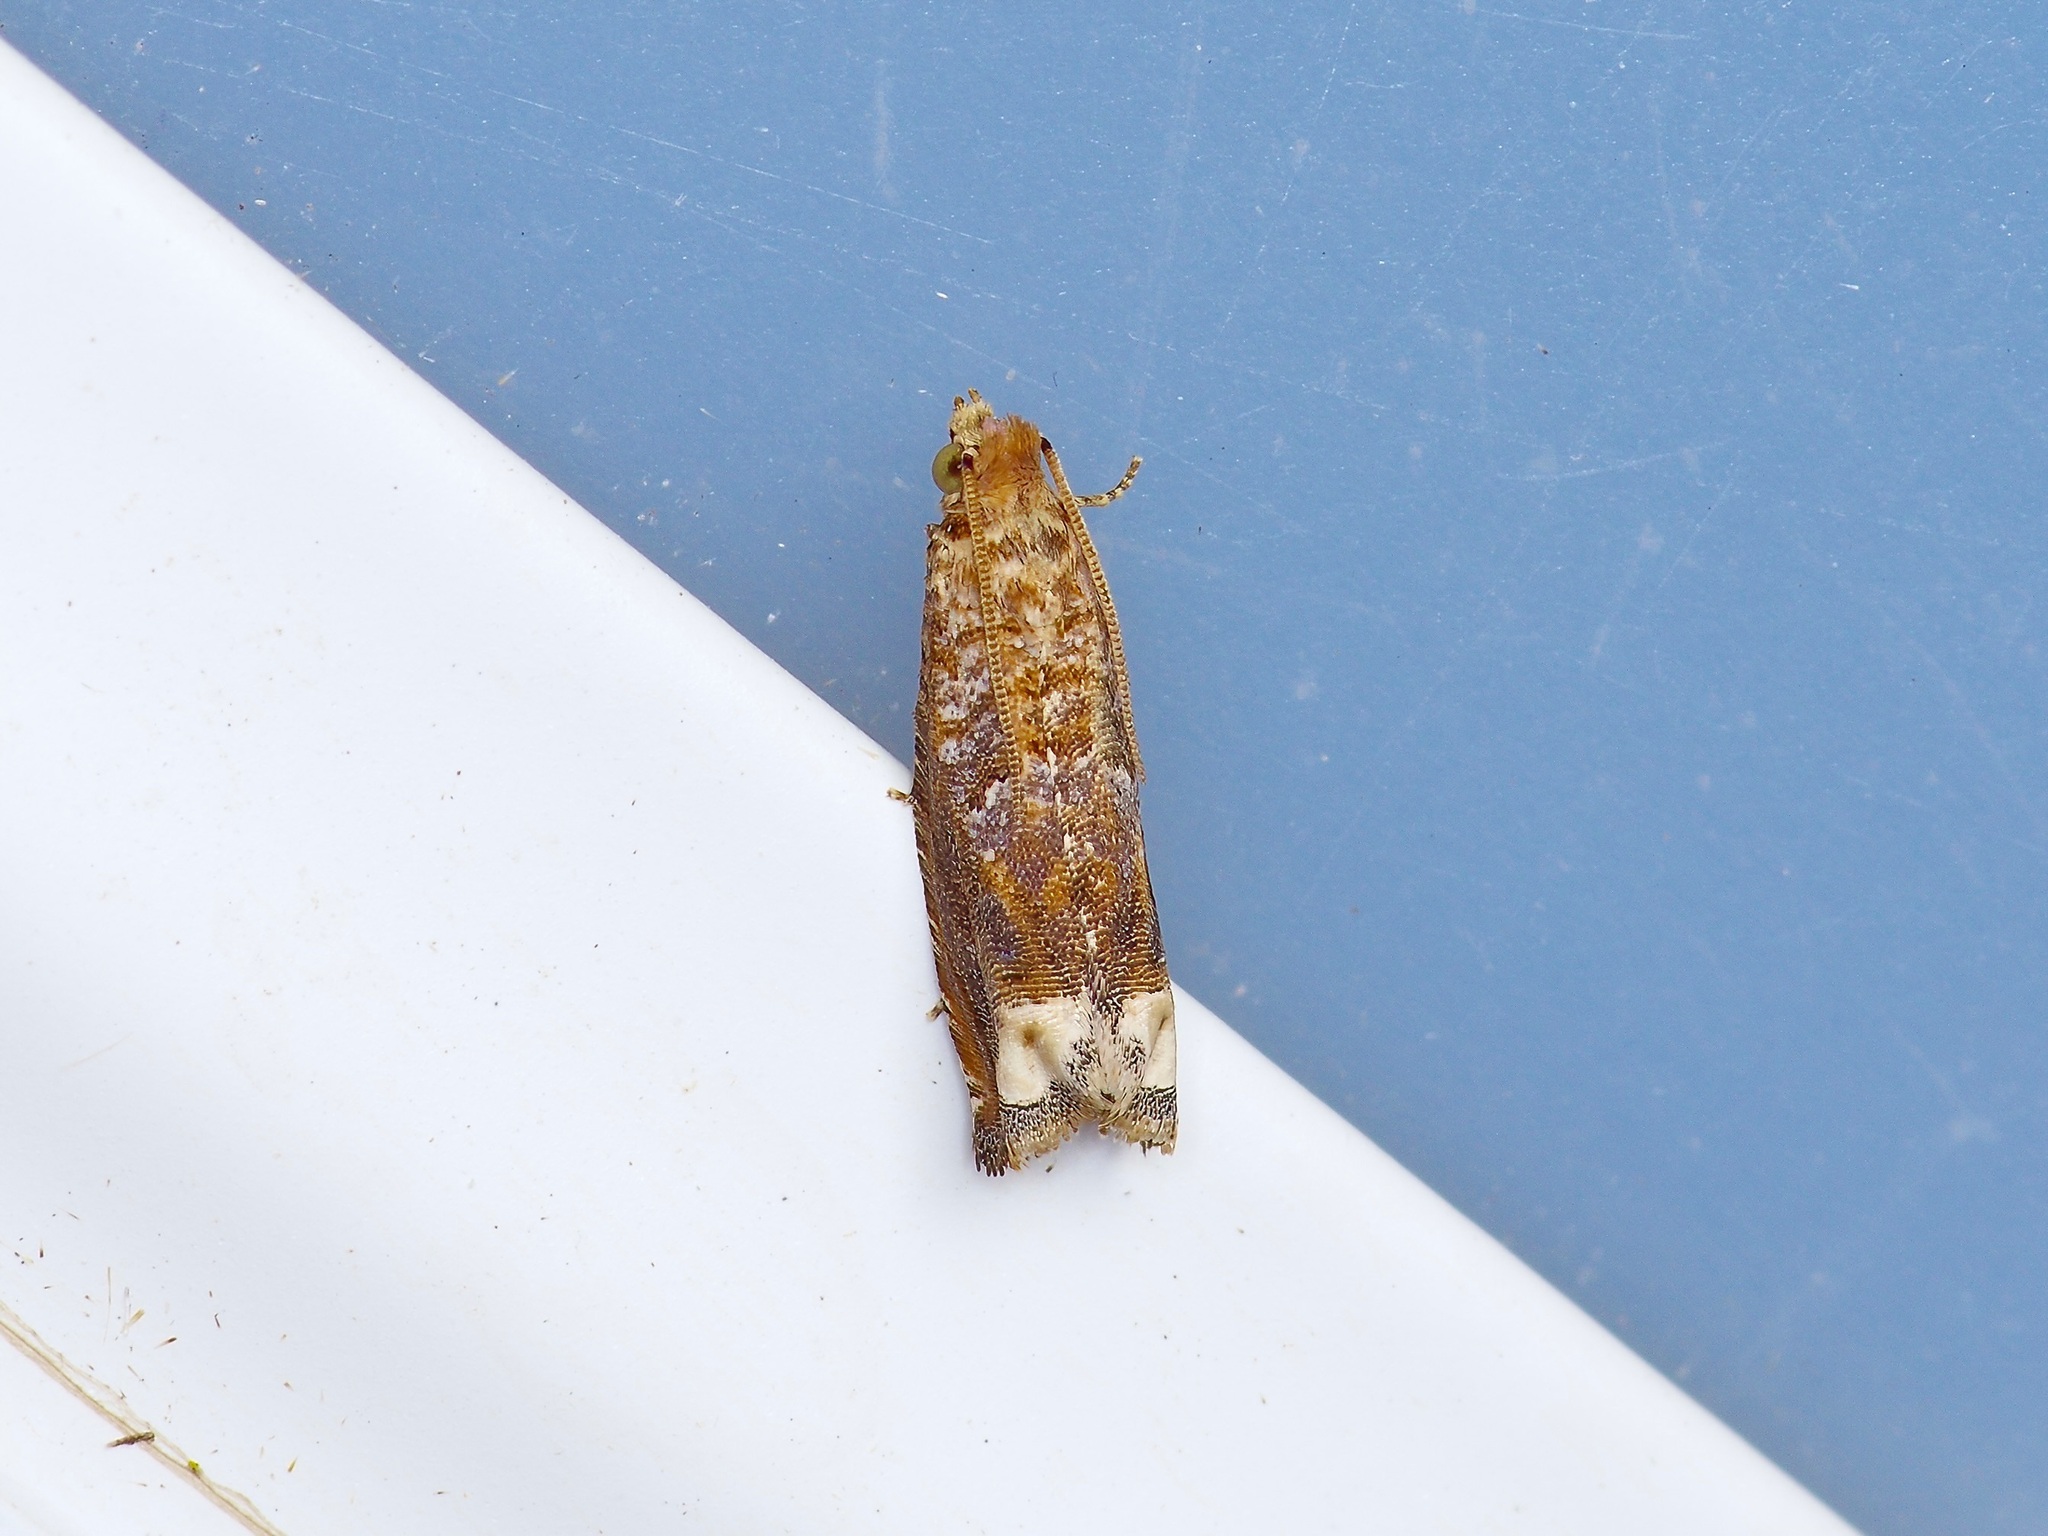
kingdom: Animalia
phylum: Arthropoda
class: Insecta
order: Lepidoptera
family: Tortricidae
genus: Epiblema
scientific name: Epiblema mandana
